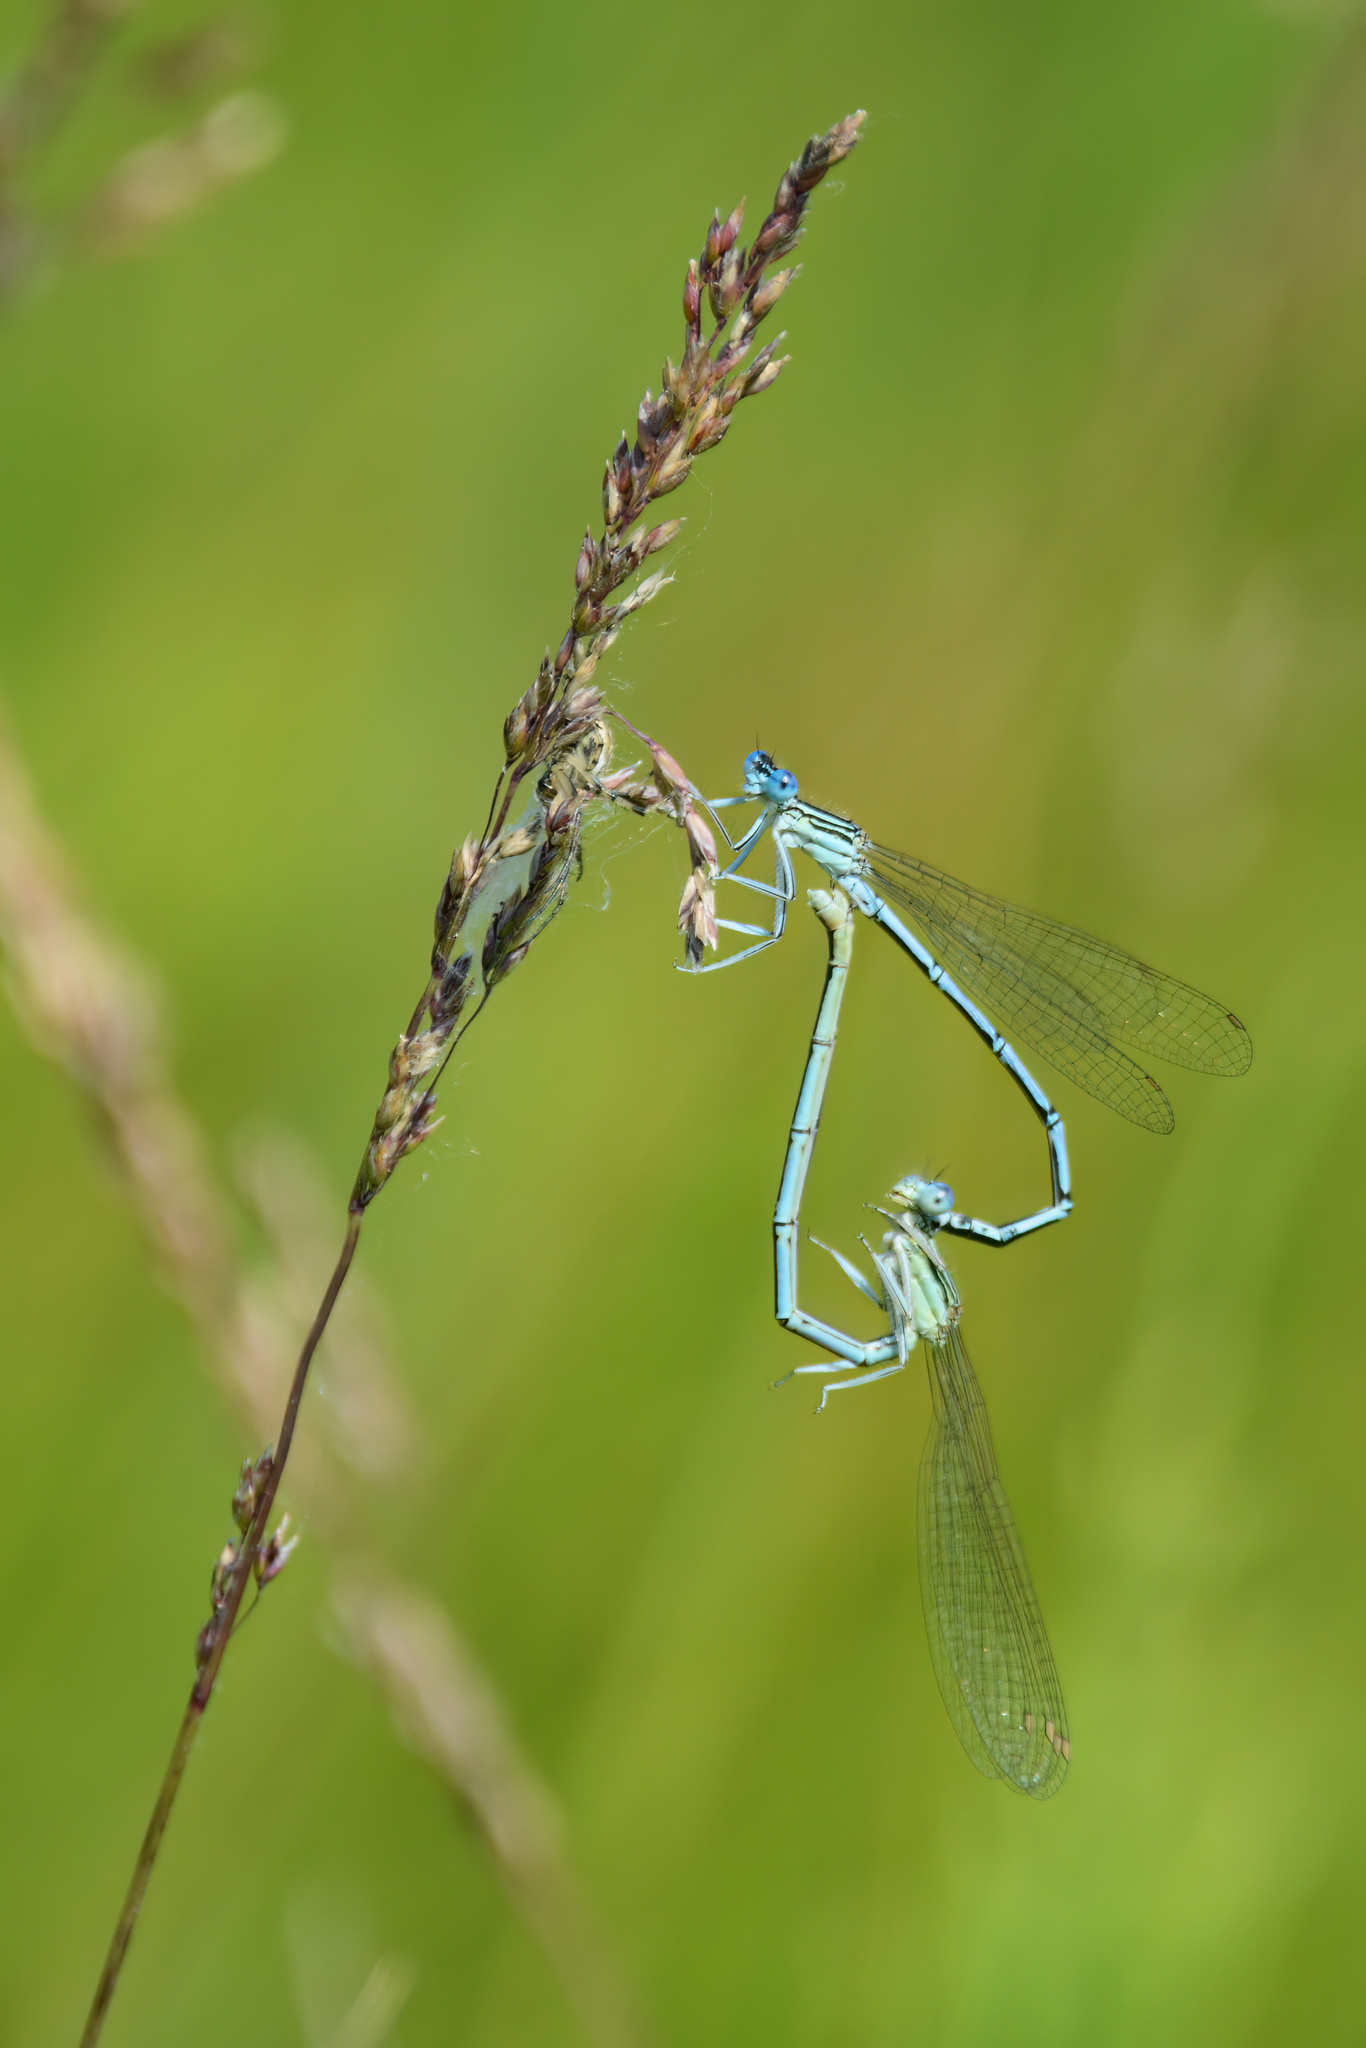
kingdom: Animalia
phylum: Arthropoda
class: Insecta
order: Odonata
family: Platycnemididae
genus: Platycnemis
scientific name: Platycnemis pennipes
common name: White-legged damselfly
